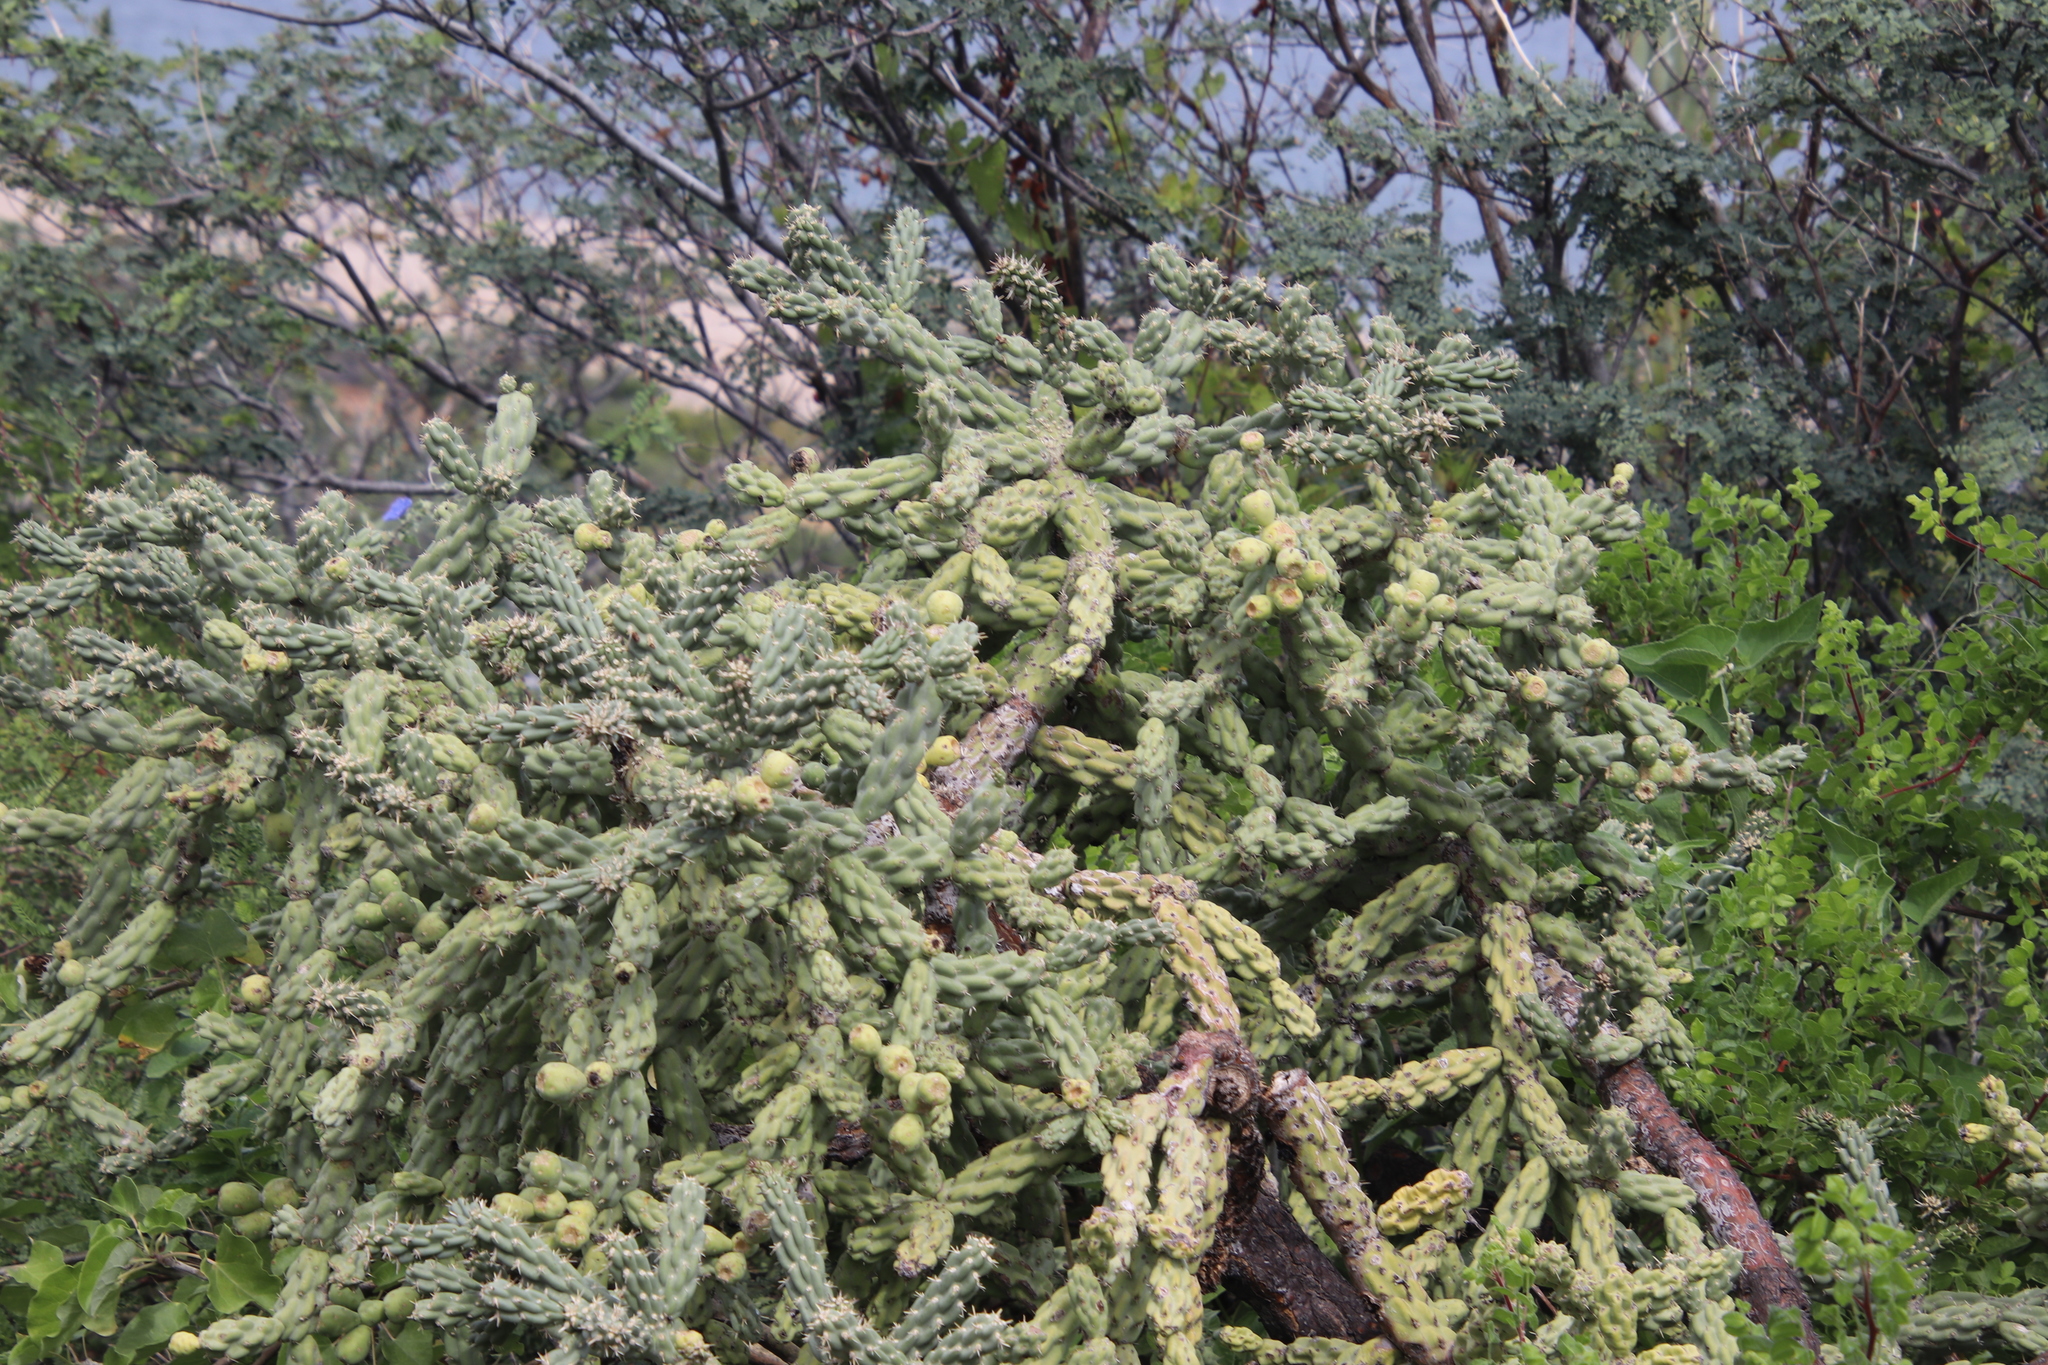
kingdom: Plantae
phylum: Tracheophyta
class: Magnoliopsida
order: Caryophyllales
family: Cactaceae
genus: Cylindropuntia
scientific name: Cylindropuntia cholla
